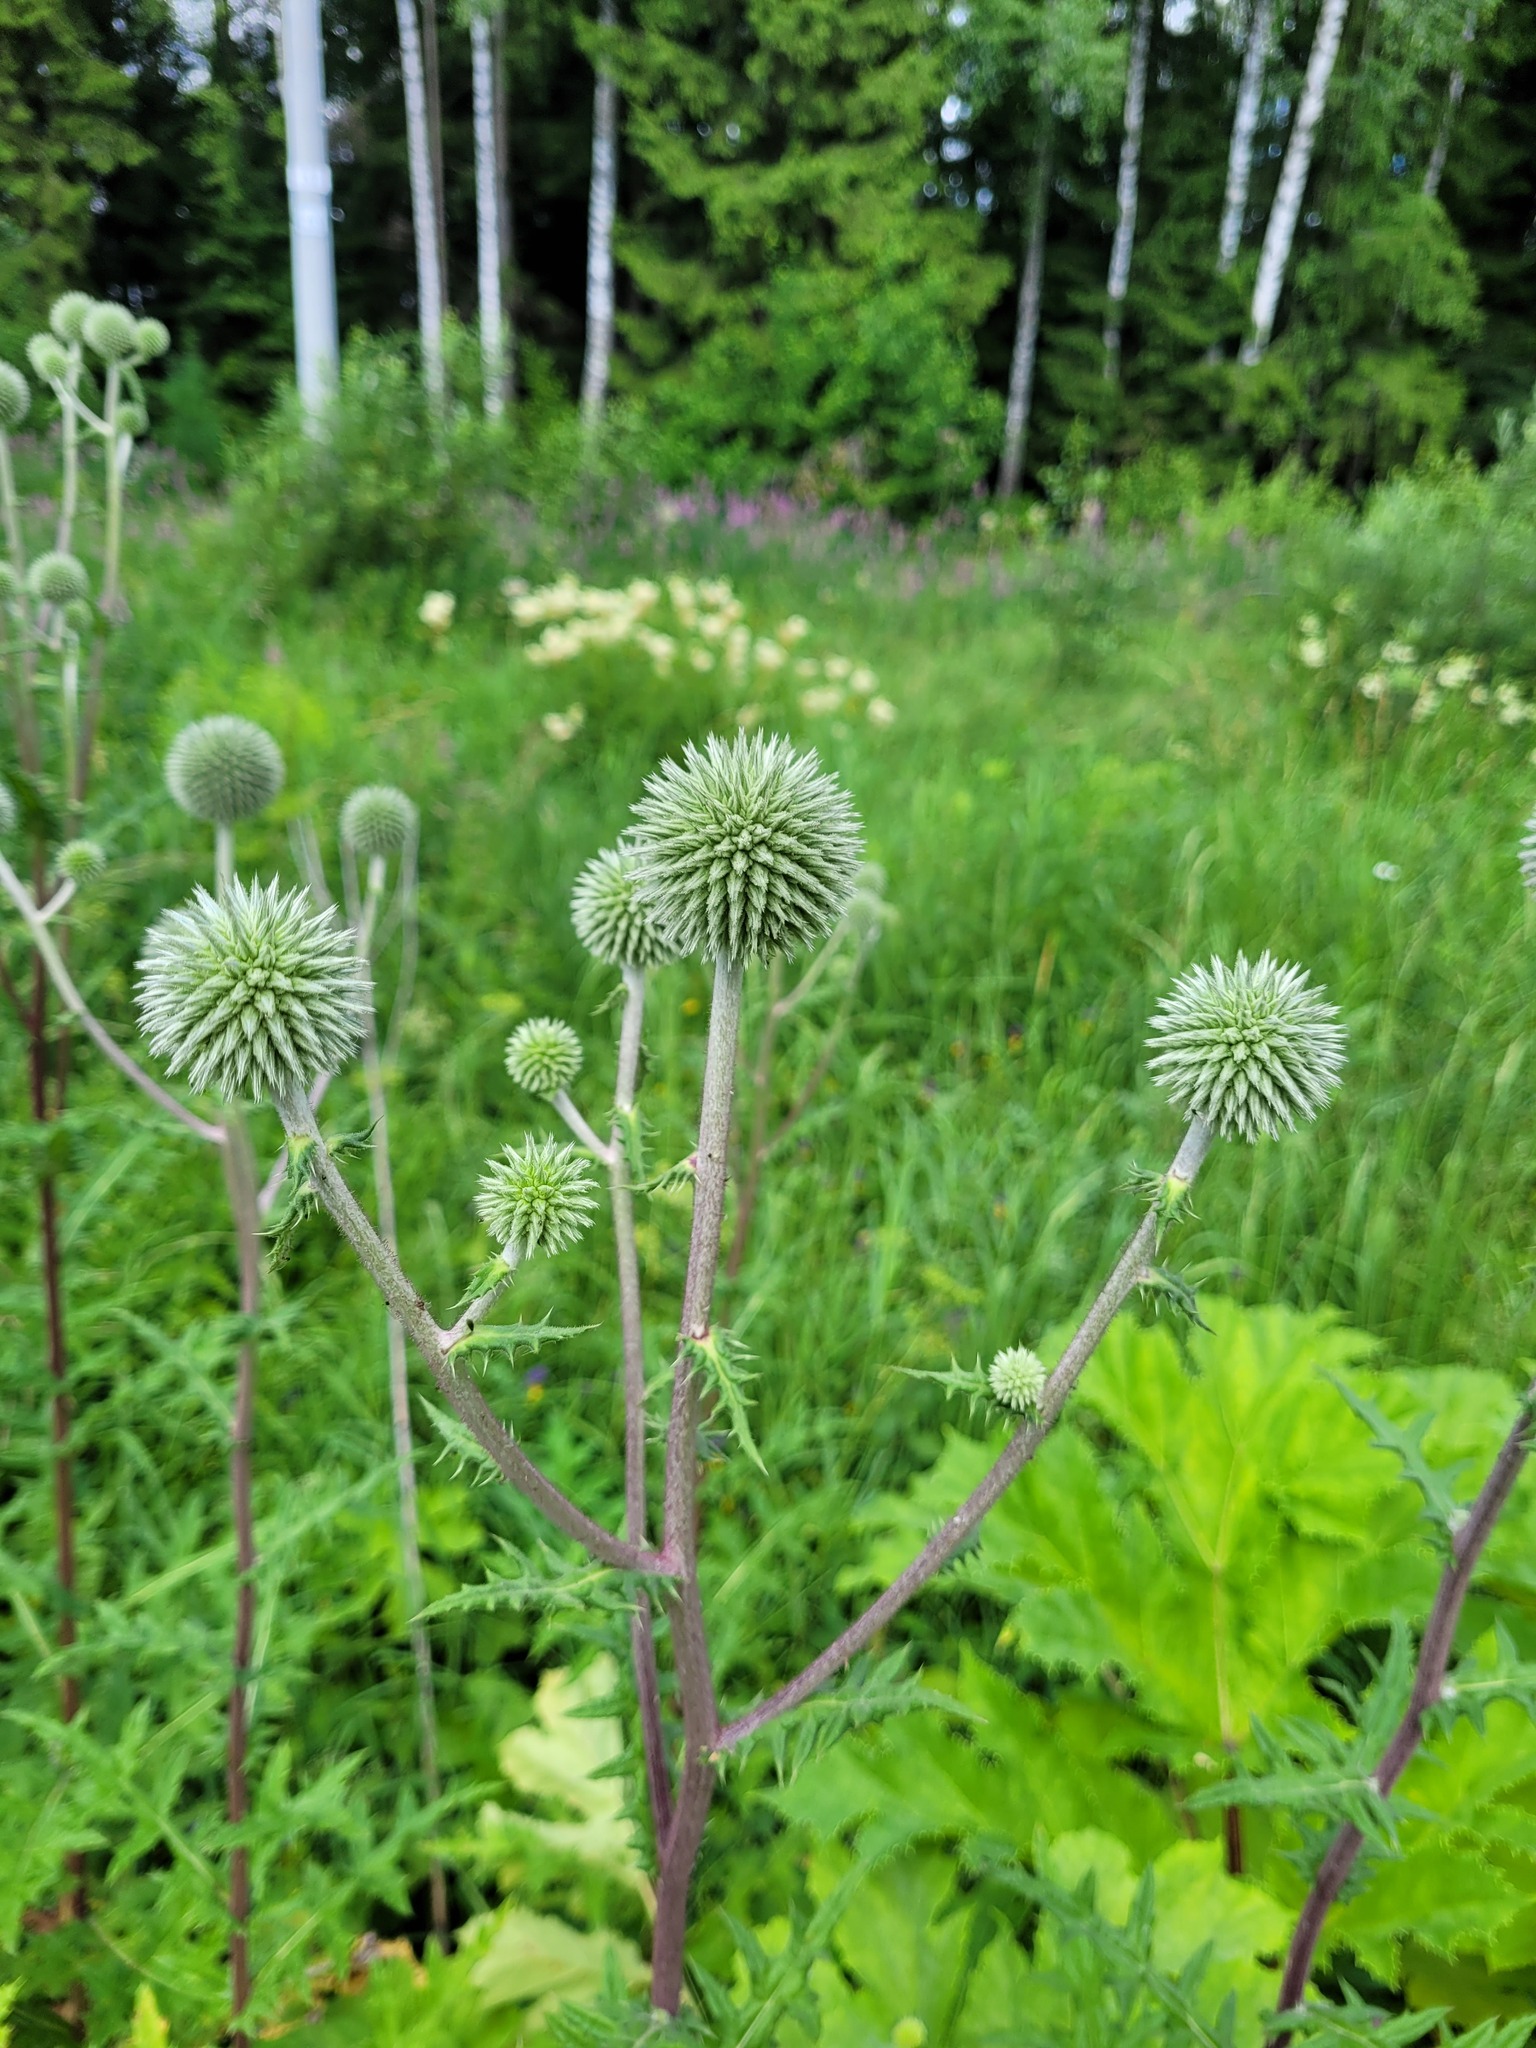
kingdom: Plantae
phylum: Tracheophyta
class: Magnoliopsida
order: Asterales
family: Asteraceae
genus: Echinops
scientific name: Echinops sphaerocephalus
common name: Glandular globe-thistle
